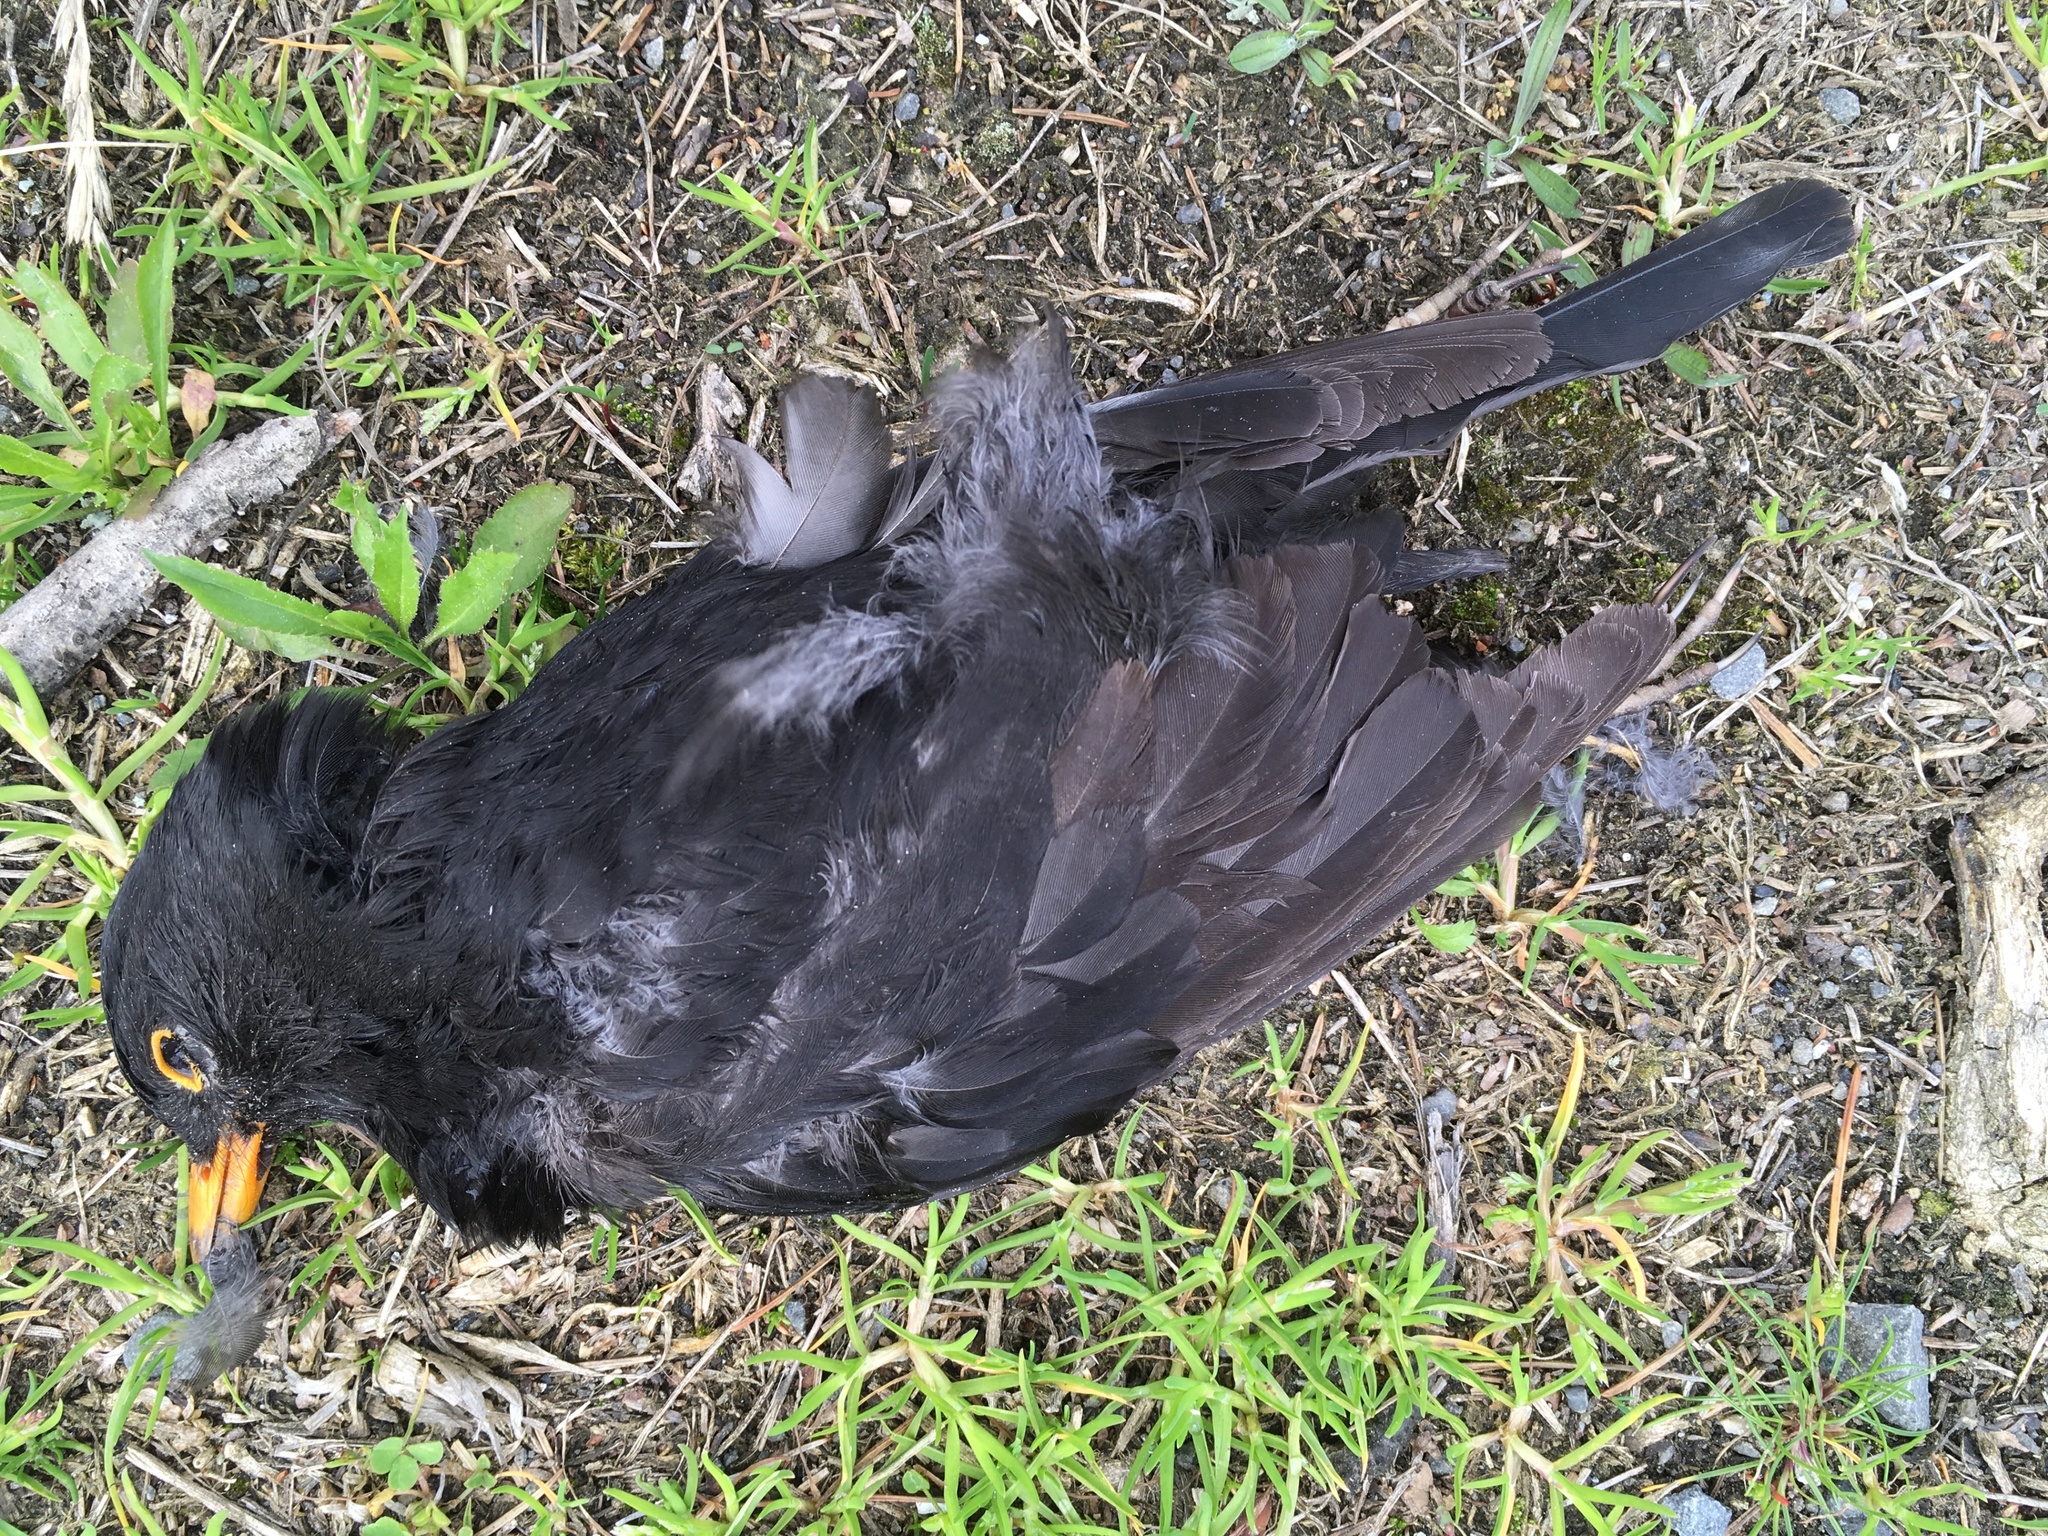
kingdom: Animalia
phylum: Chordata
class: Aves
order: Passeriformes
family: Turdidae
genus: Turdus
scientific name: Turdus merula
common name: Common blackbird
